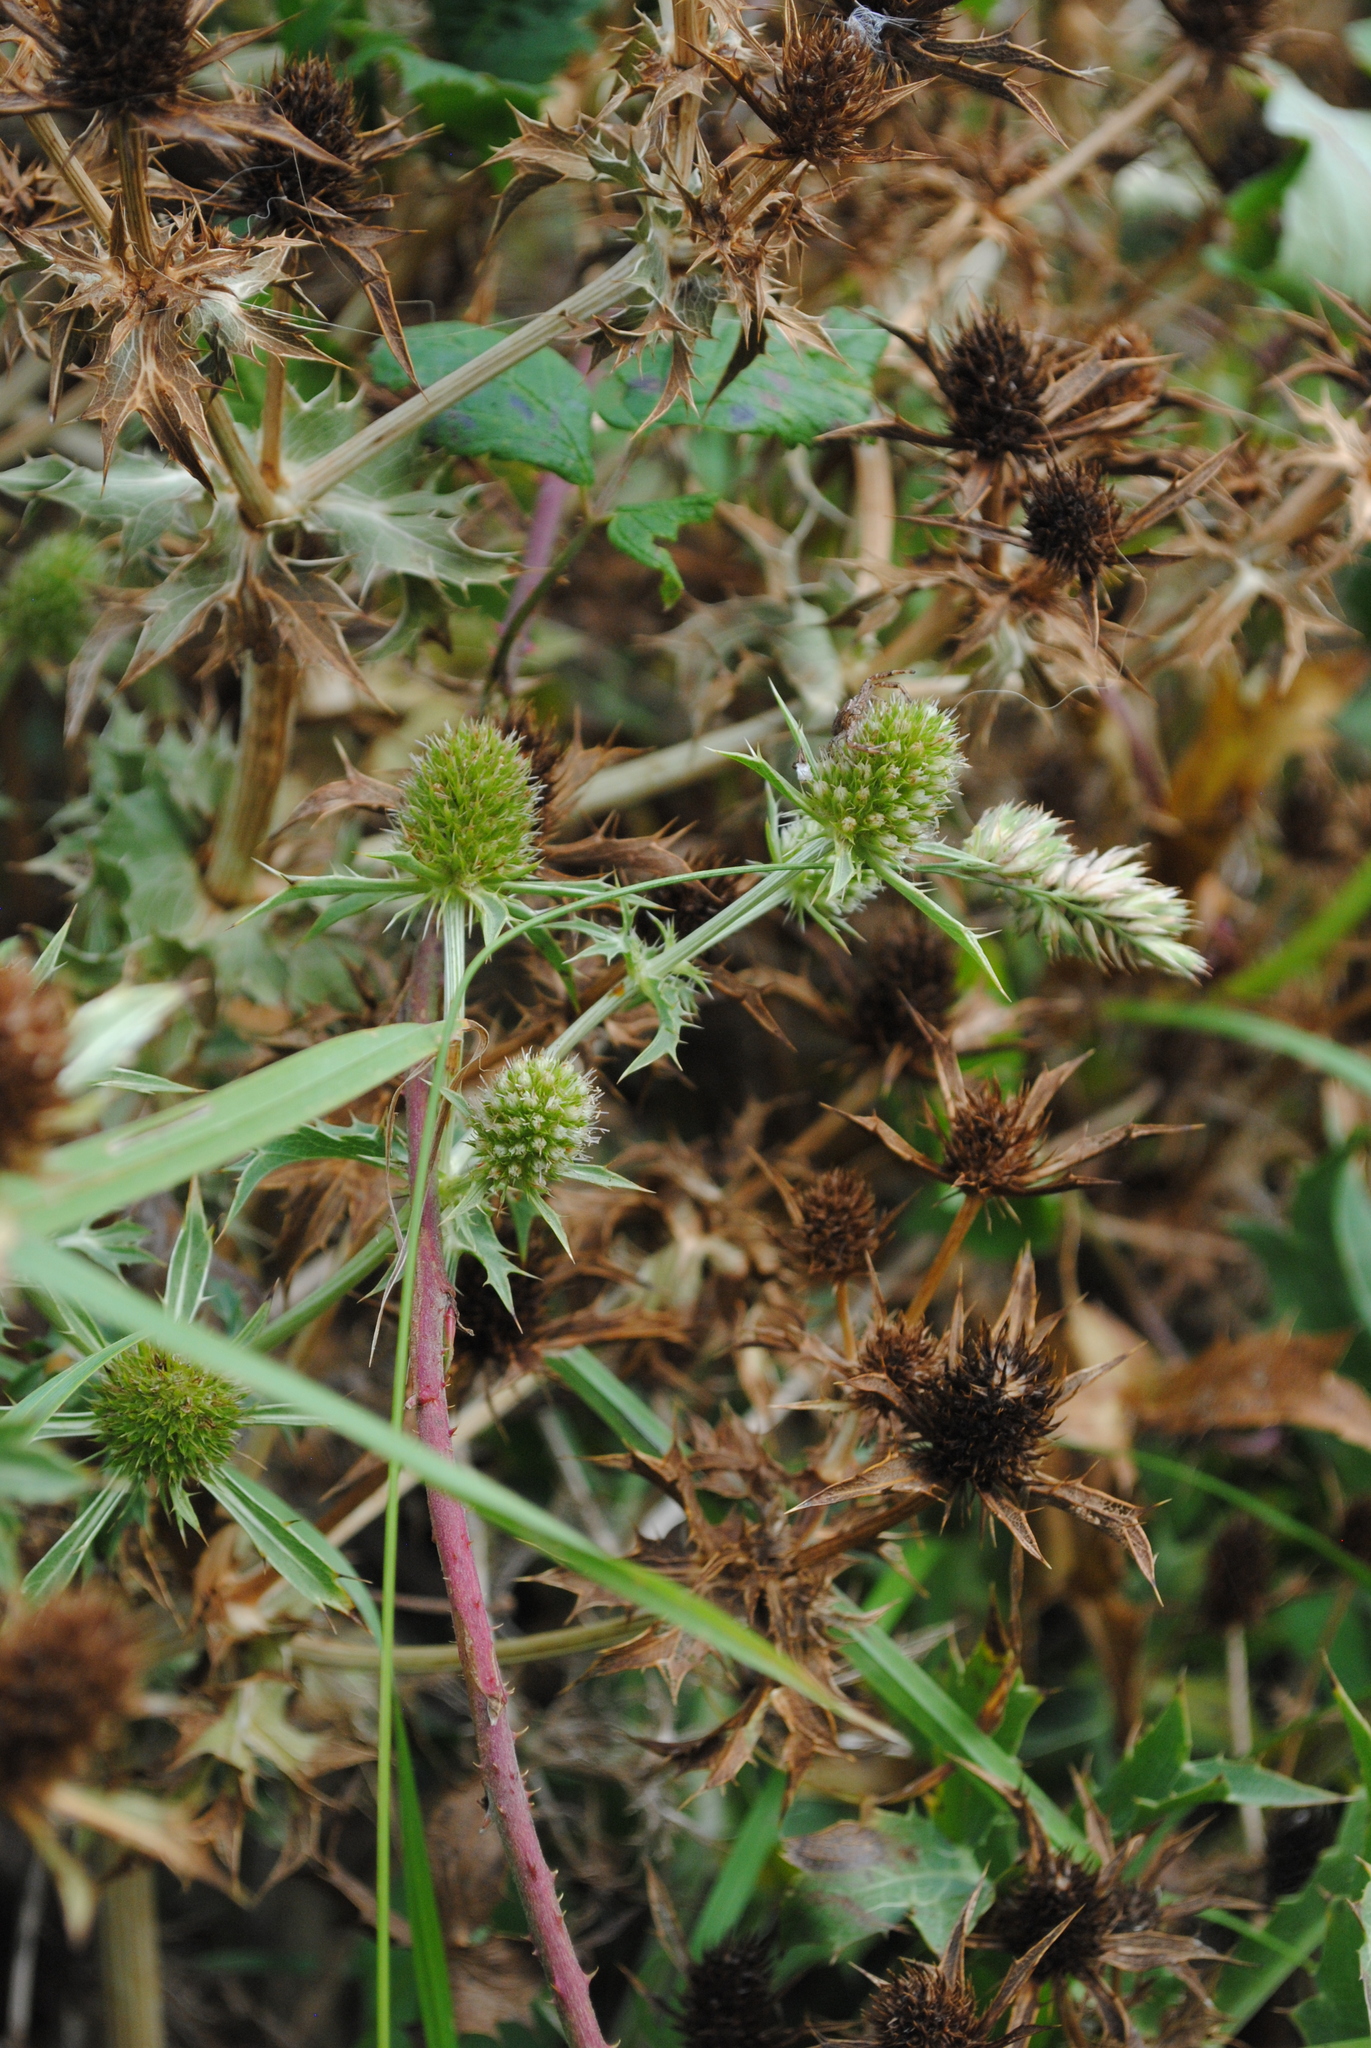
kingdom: Plantae
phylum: Tracheophyta
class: Magnoliopsida
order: Apiales
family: Apiaceae
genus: Eryngium
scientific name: Eryngium campestre
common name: Field eryngo
